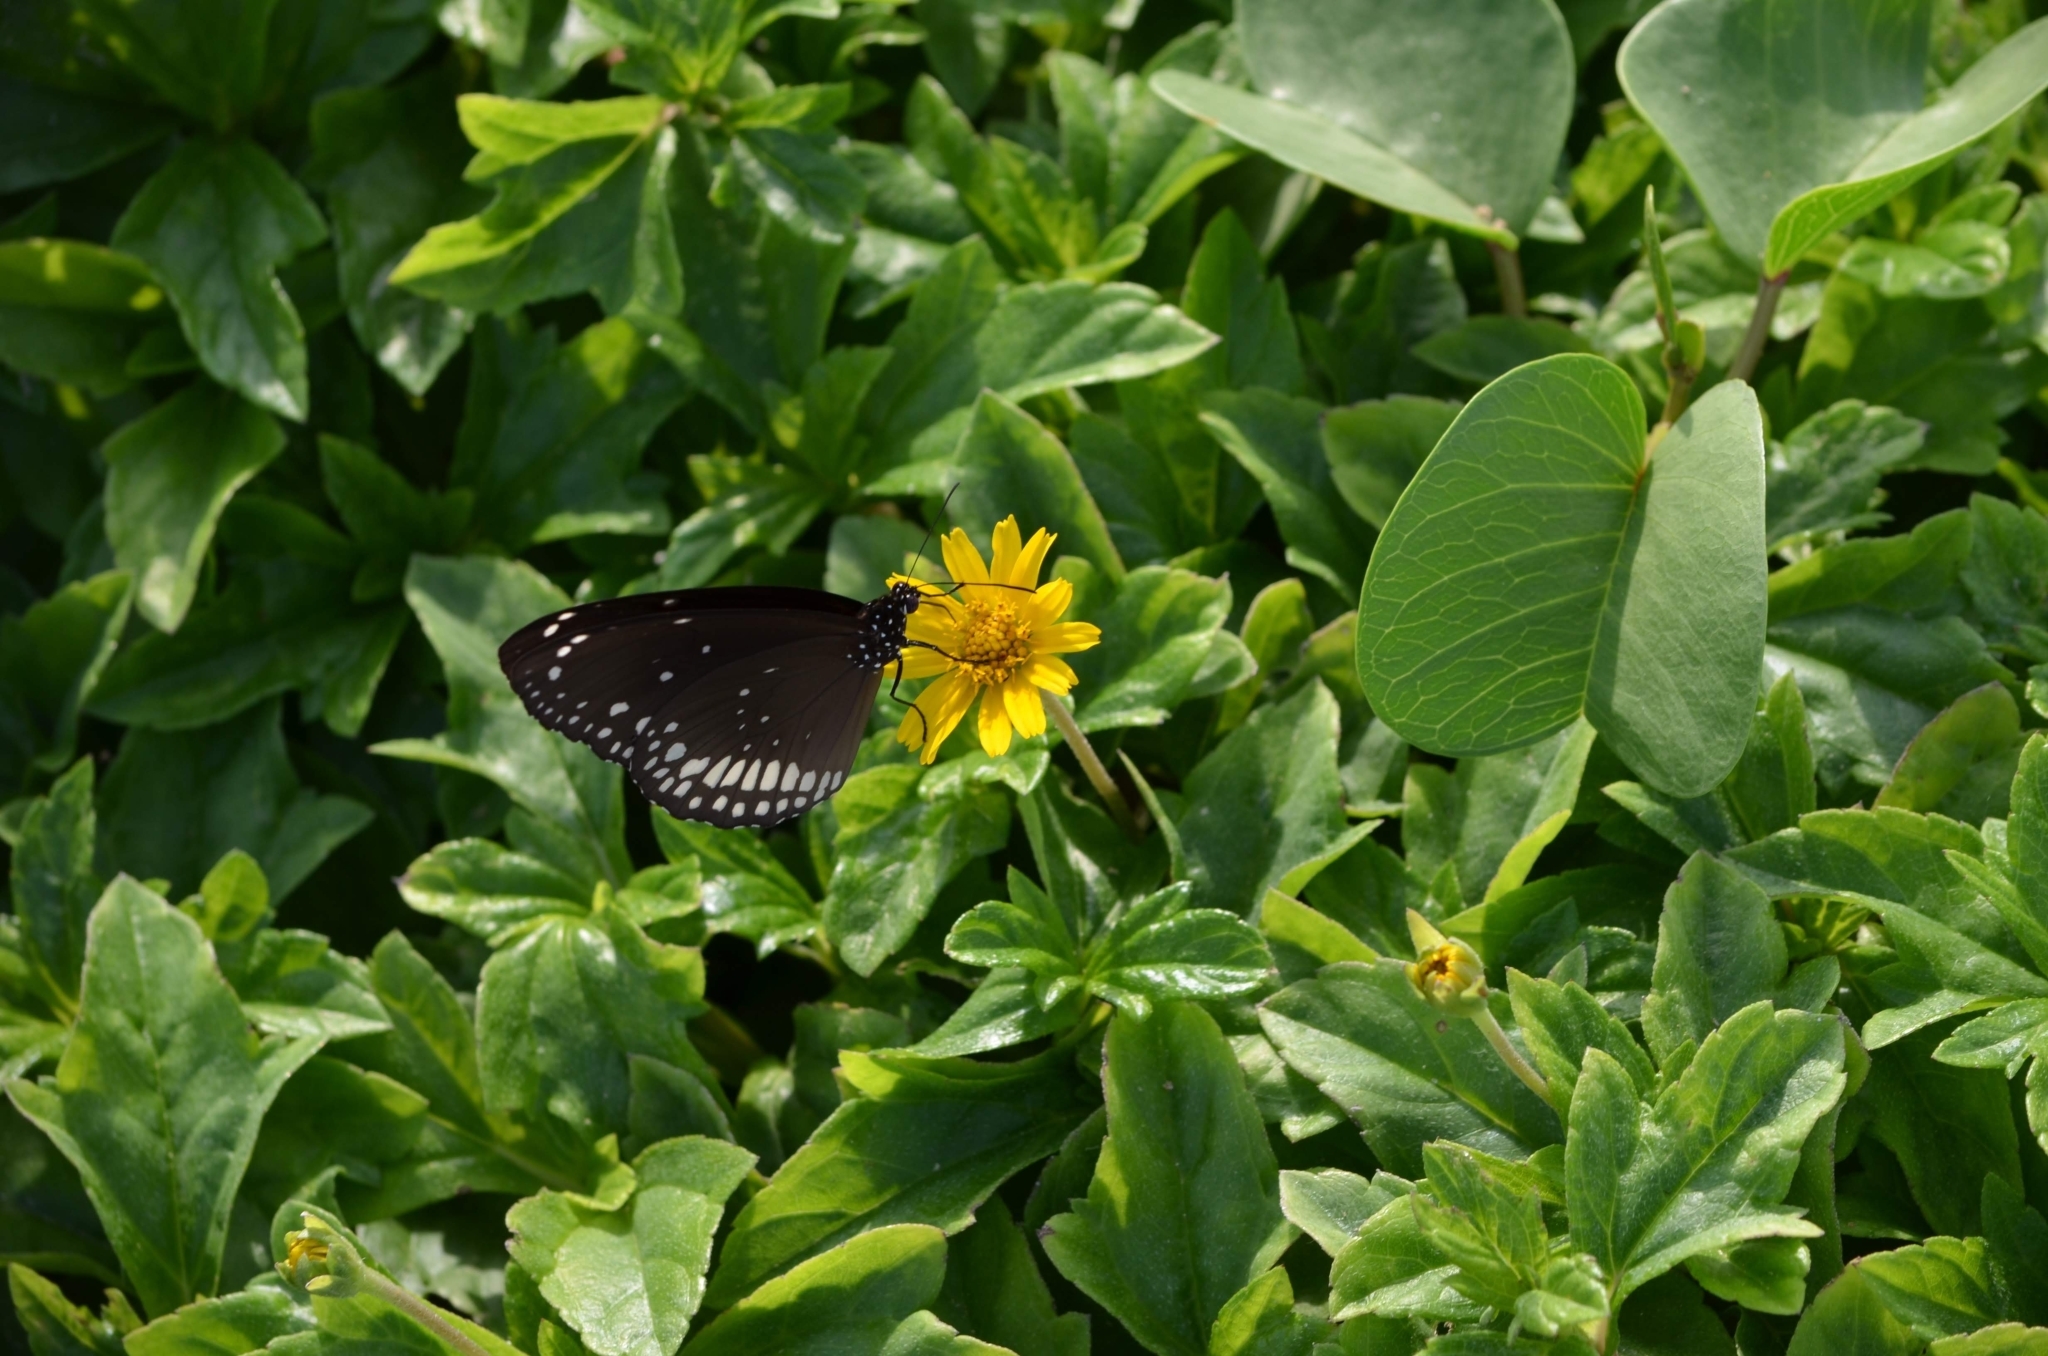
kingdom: Animalia
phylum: Arthropoda
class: Insecta
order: Lepidoptera
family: Nymphalidae
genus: Euploea
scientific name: Euploea core
